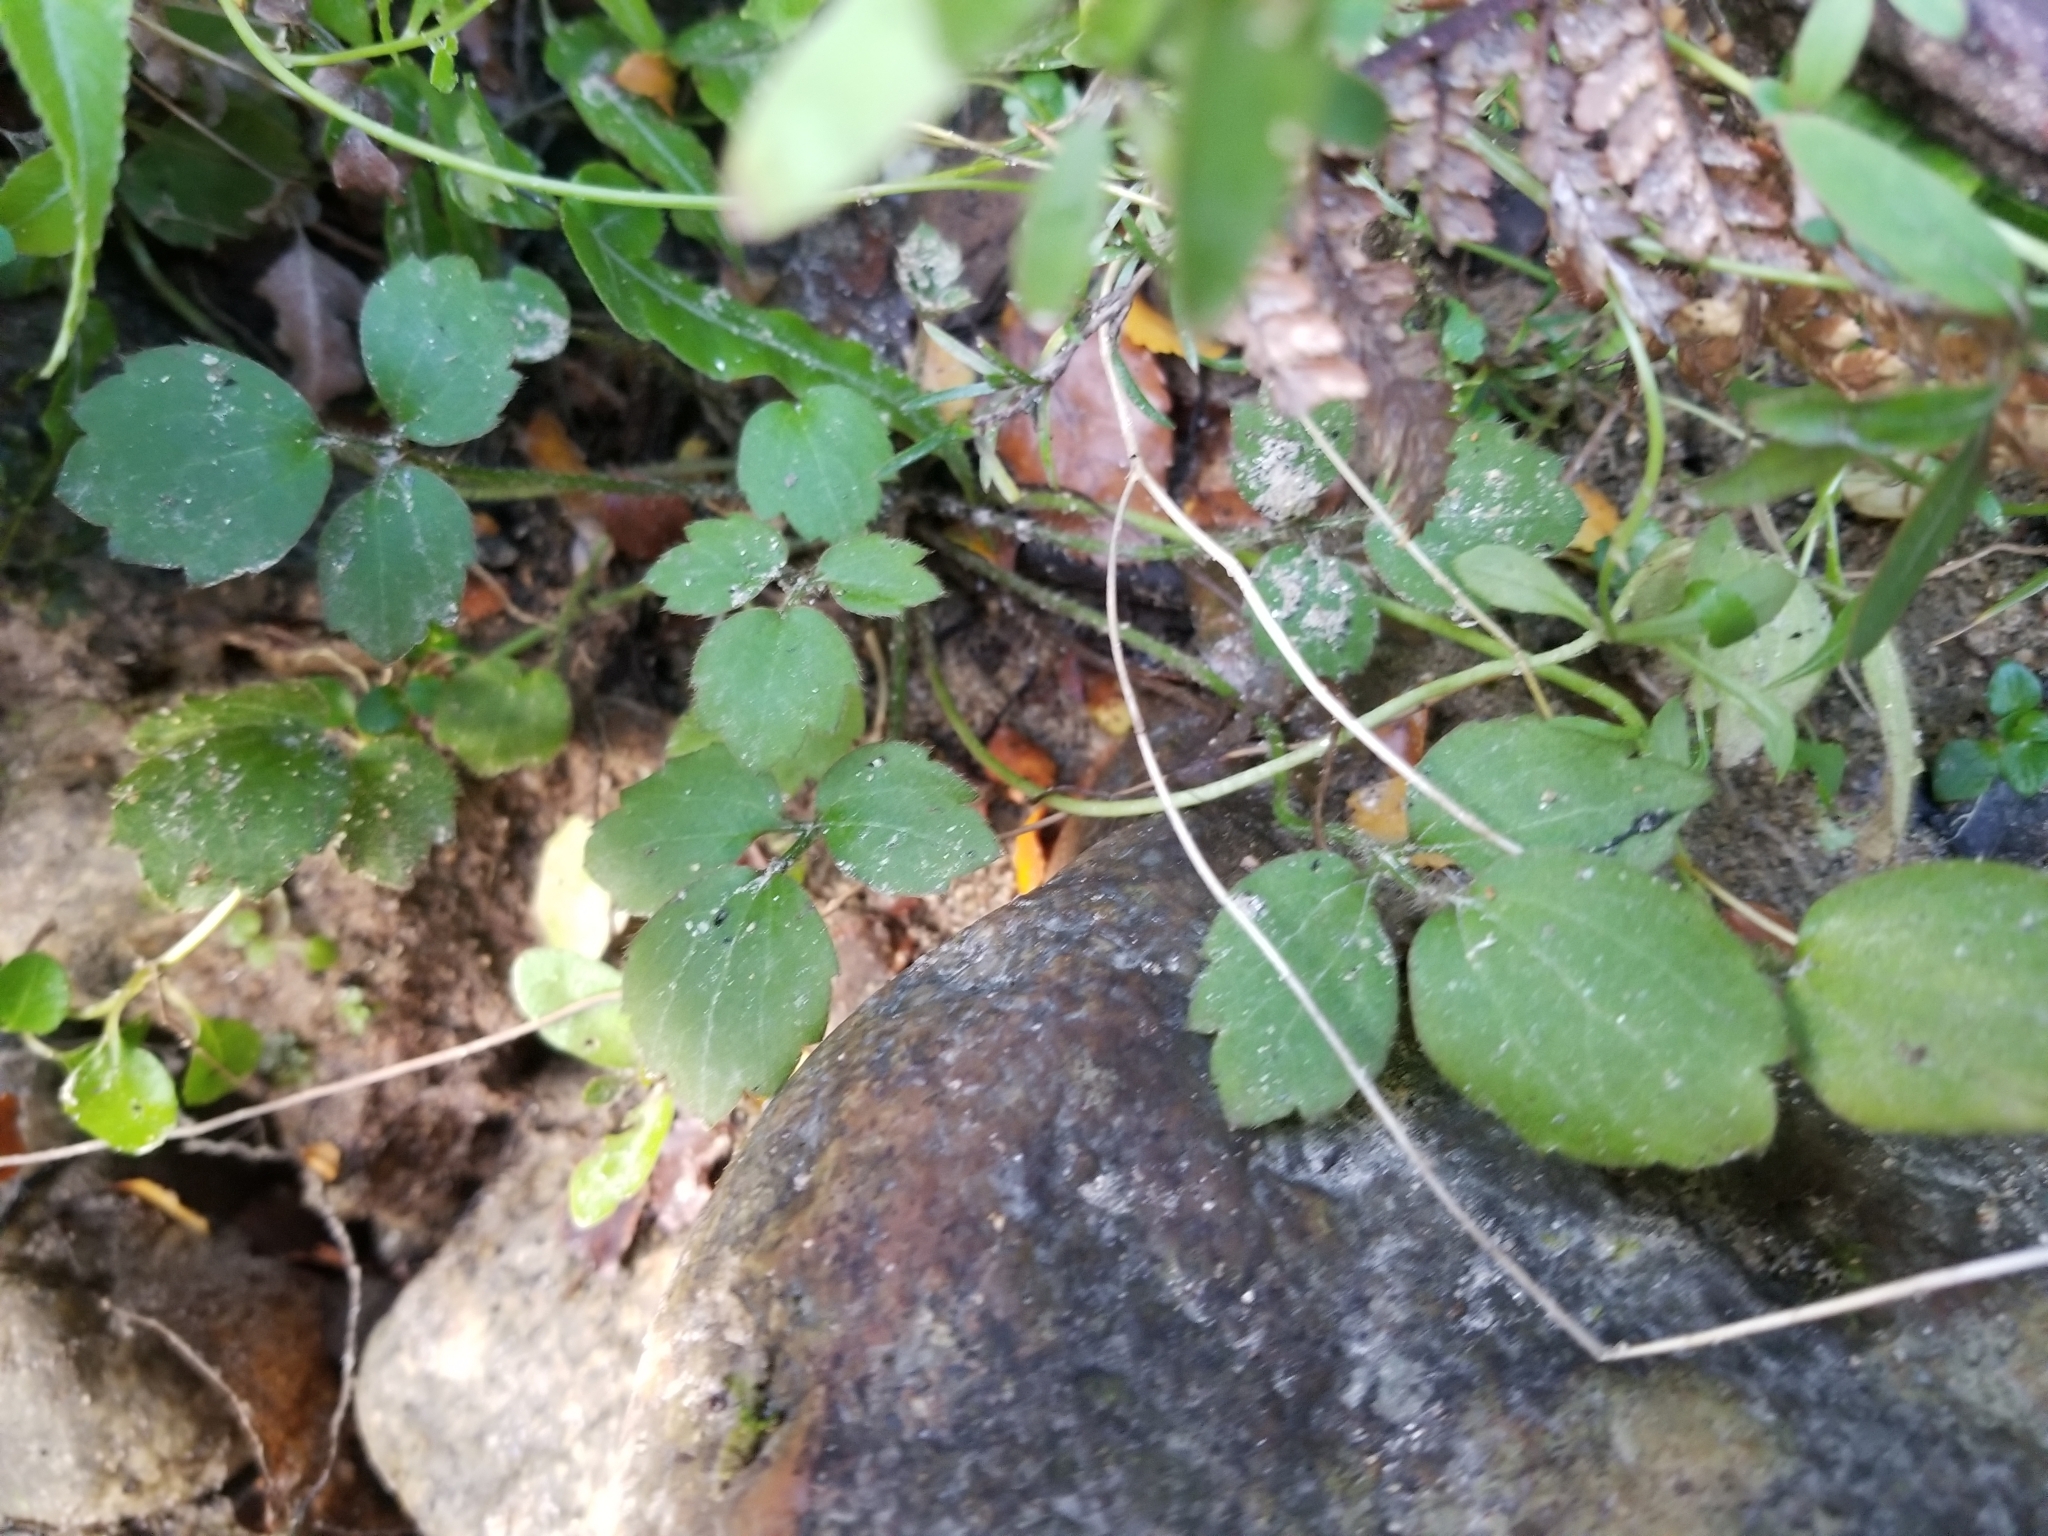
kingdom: Plantae
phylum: Tracheophyta
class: Magnoliopsida
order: Ranunculales
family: Ranunculaceae
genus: Ranunculus
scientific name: Ranunculus reflexus
